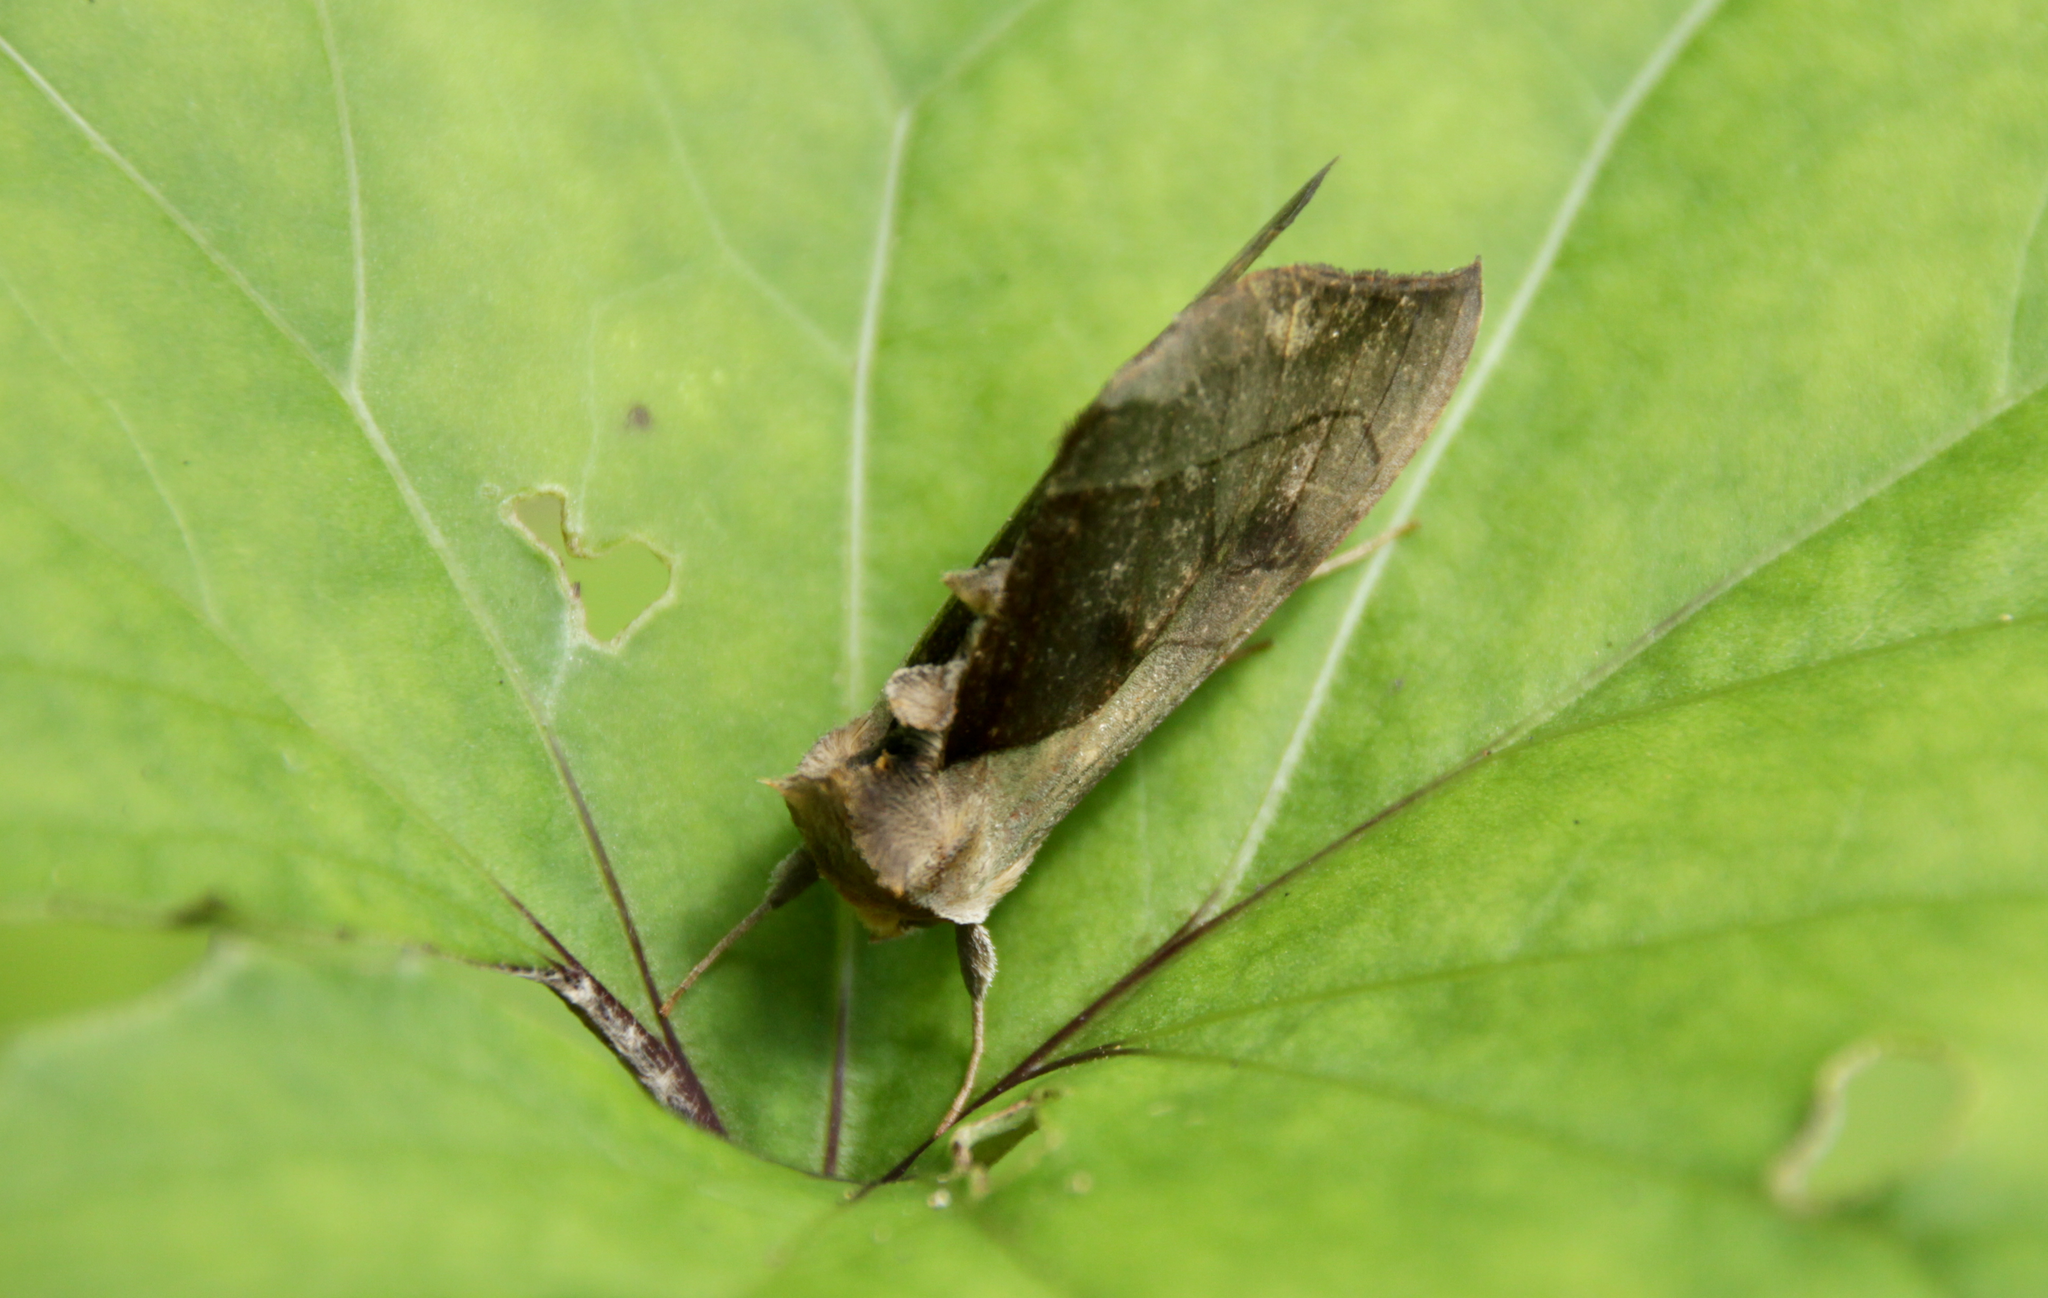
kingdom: Animalia
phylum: Arthropoda
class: Insecta
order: Lepidoptera
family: Noctuidae
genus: Diachrysia
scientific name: Diachrysia balluca
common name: Green-patched looper moth
